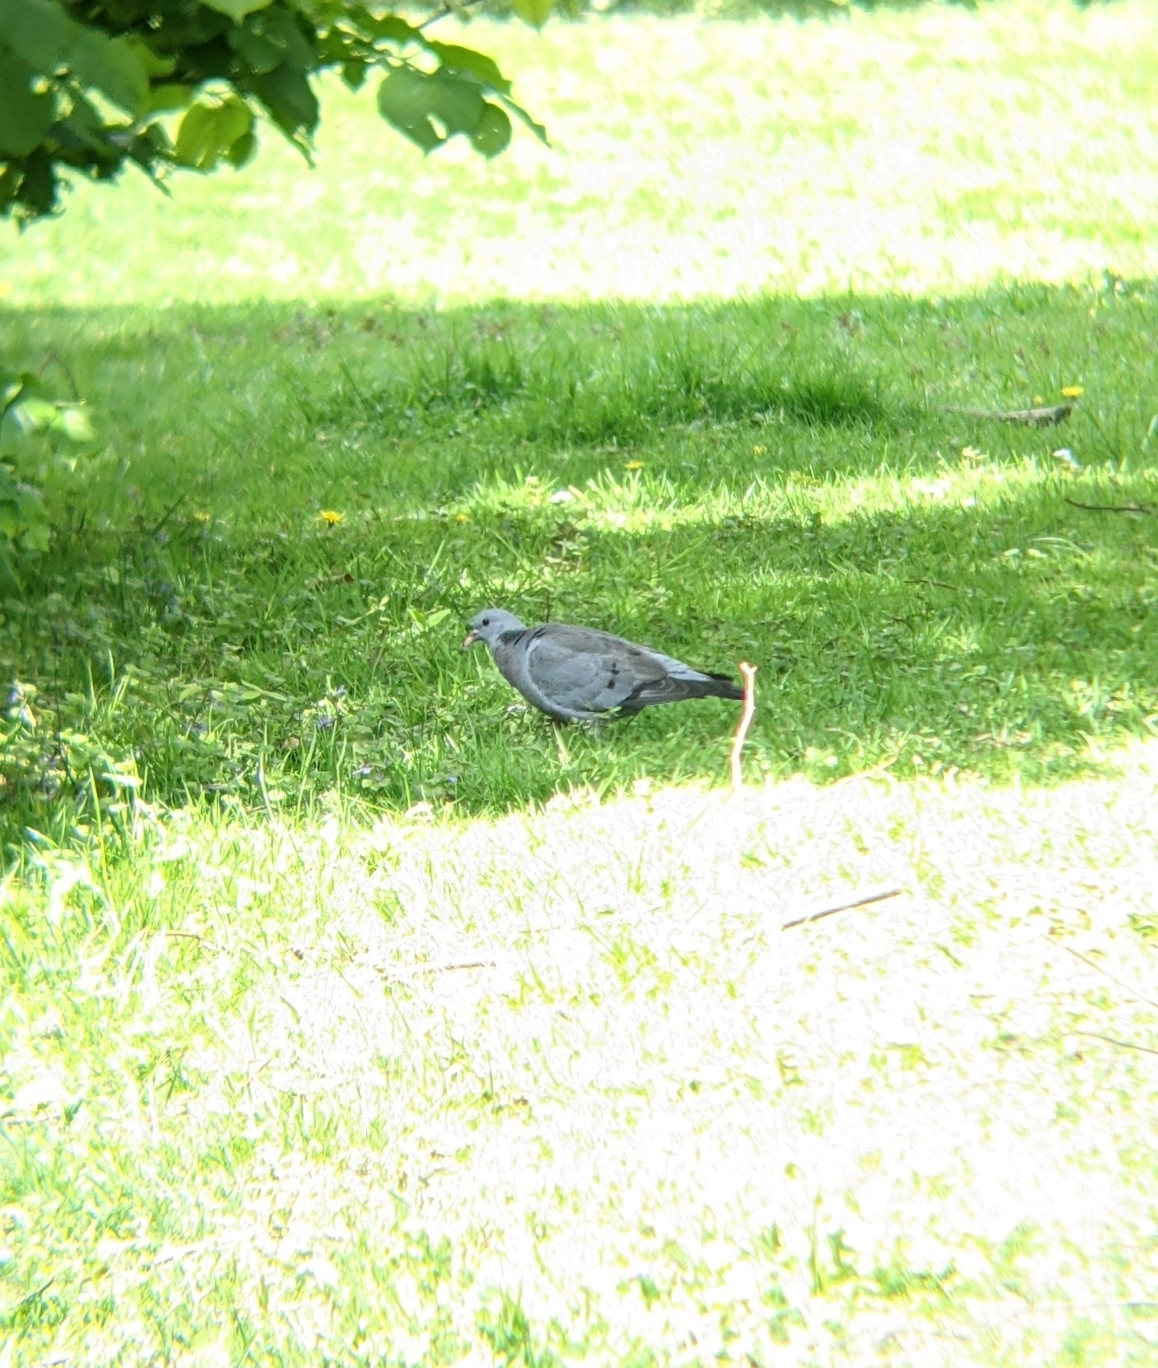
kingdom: Animalia
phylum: Chordata
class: Aves
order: Columbiformes
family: Columbidae
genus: Columba
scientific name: Columba oenas
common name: Stock dove
